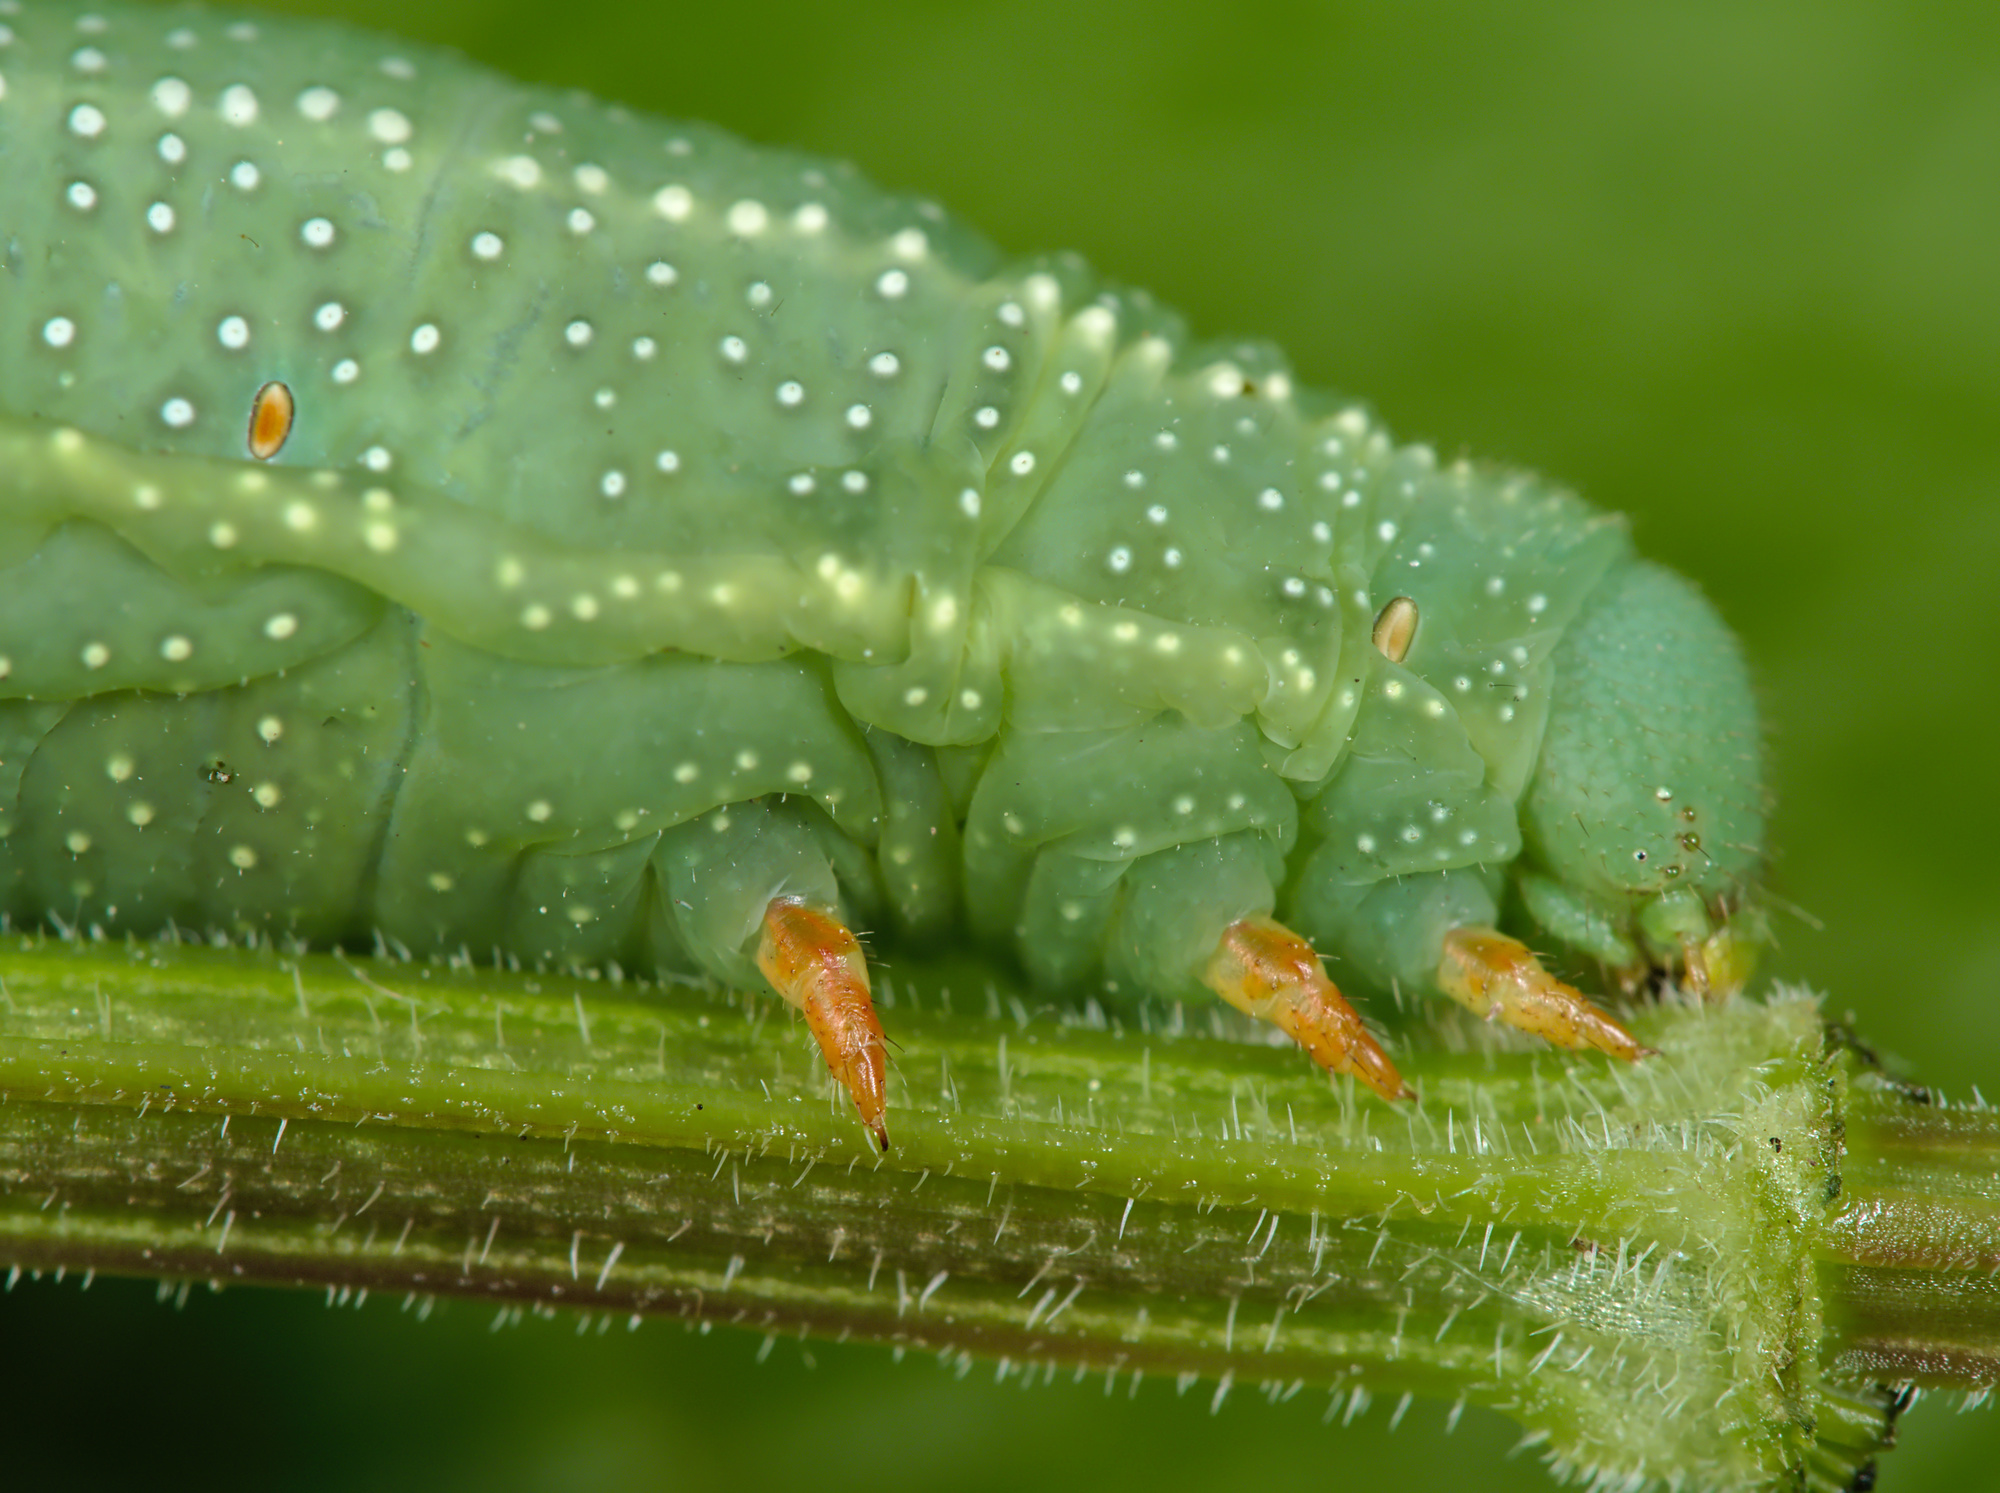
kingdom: Animalia
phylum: Arthropoda
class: Insecta
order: Lepidoptera
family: Sphingidae
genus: Macroglossum
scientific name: Macroglossum stellatarum
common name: Humming-bird hawk-moth
